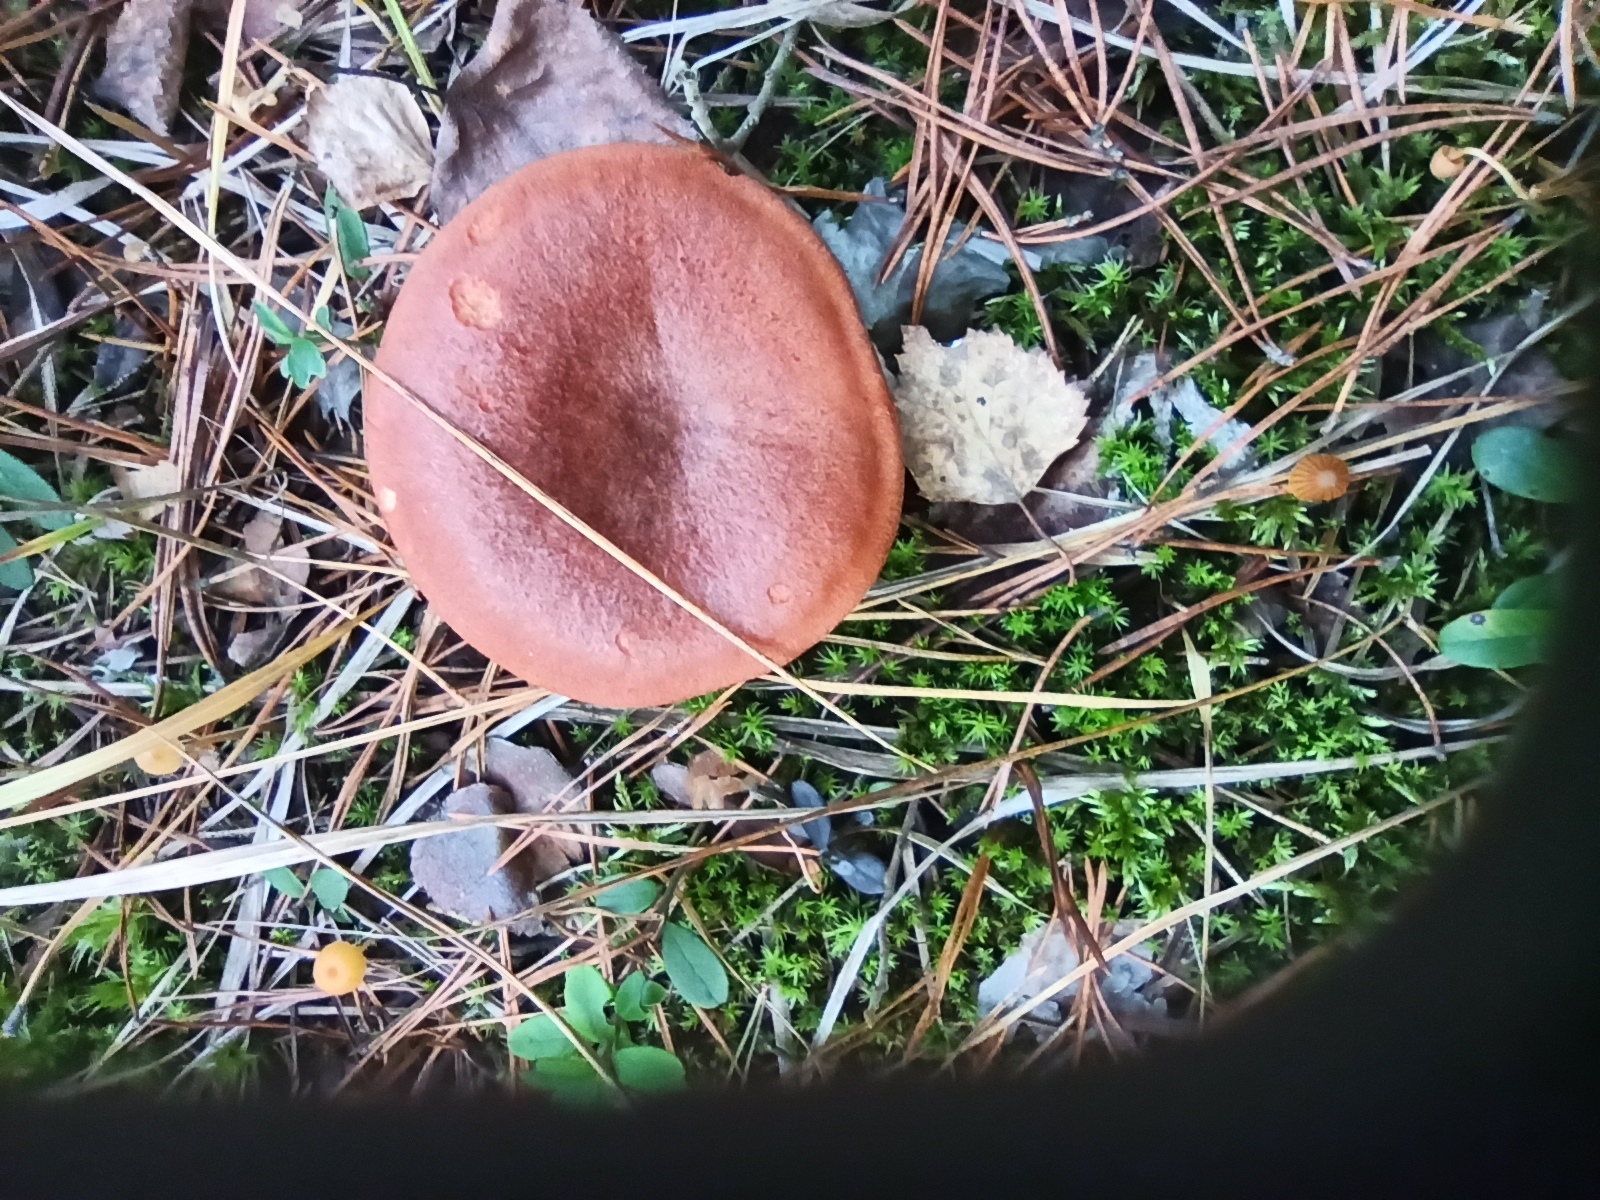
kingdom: Fungi
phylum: Basidiomycota
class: Agaricomycetes
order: Russulales
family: Russulaceae
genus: Lactarius
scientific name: Lactarius rufus
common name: Rufous milk-cap
